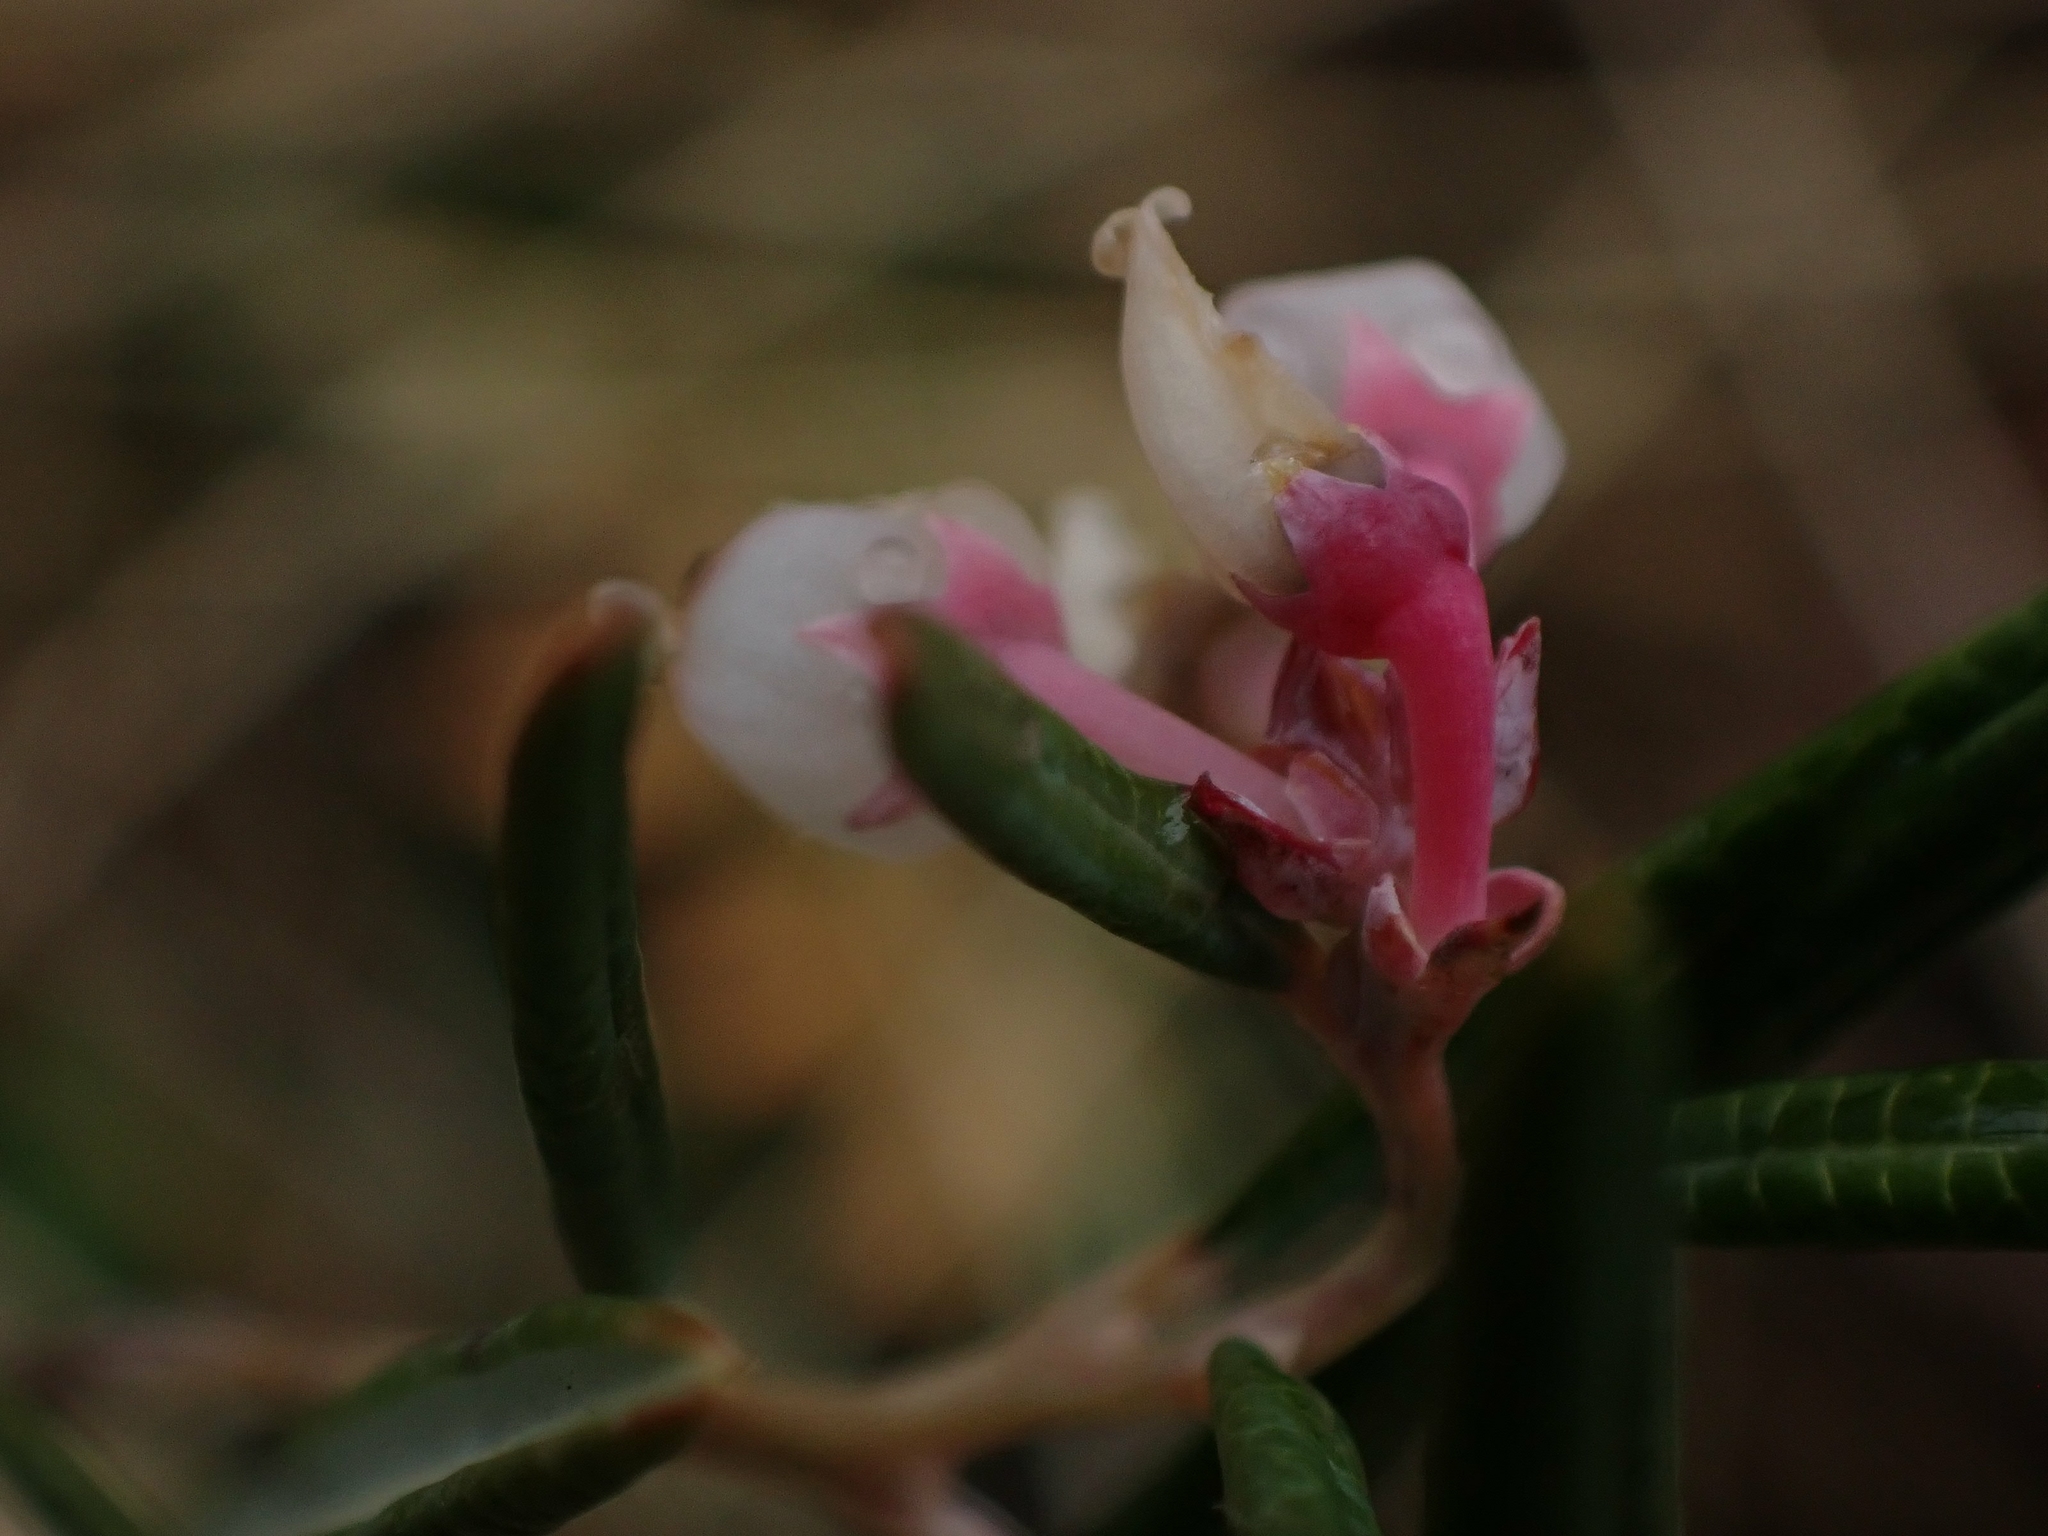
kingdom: Plantae
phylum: Tracheophyta
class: Magnoliopsida
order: Ericales
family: Ericaceae
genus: Andromeda
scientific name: Andromeda polifolia
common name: Bog-rosemary
